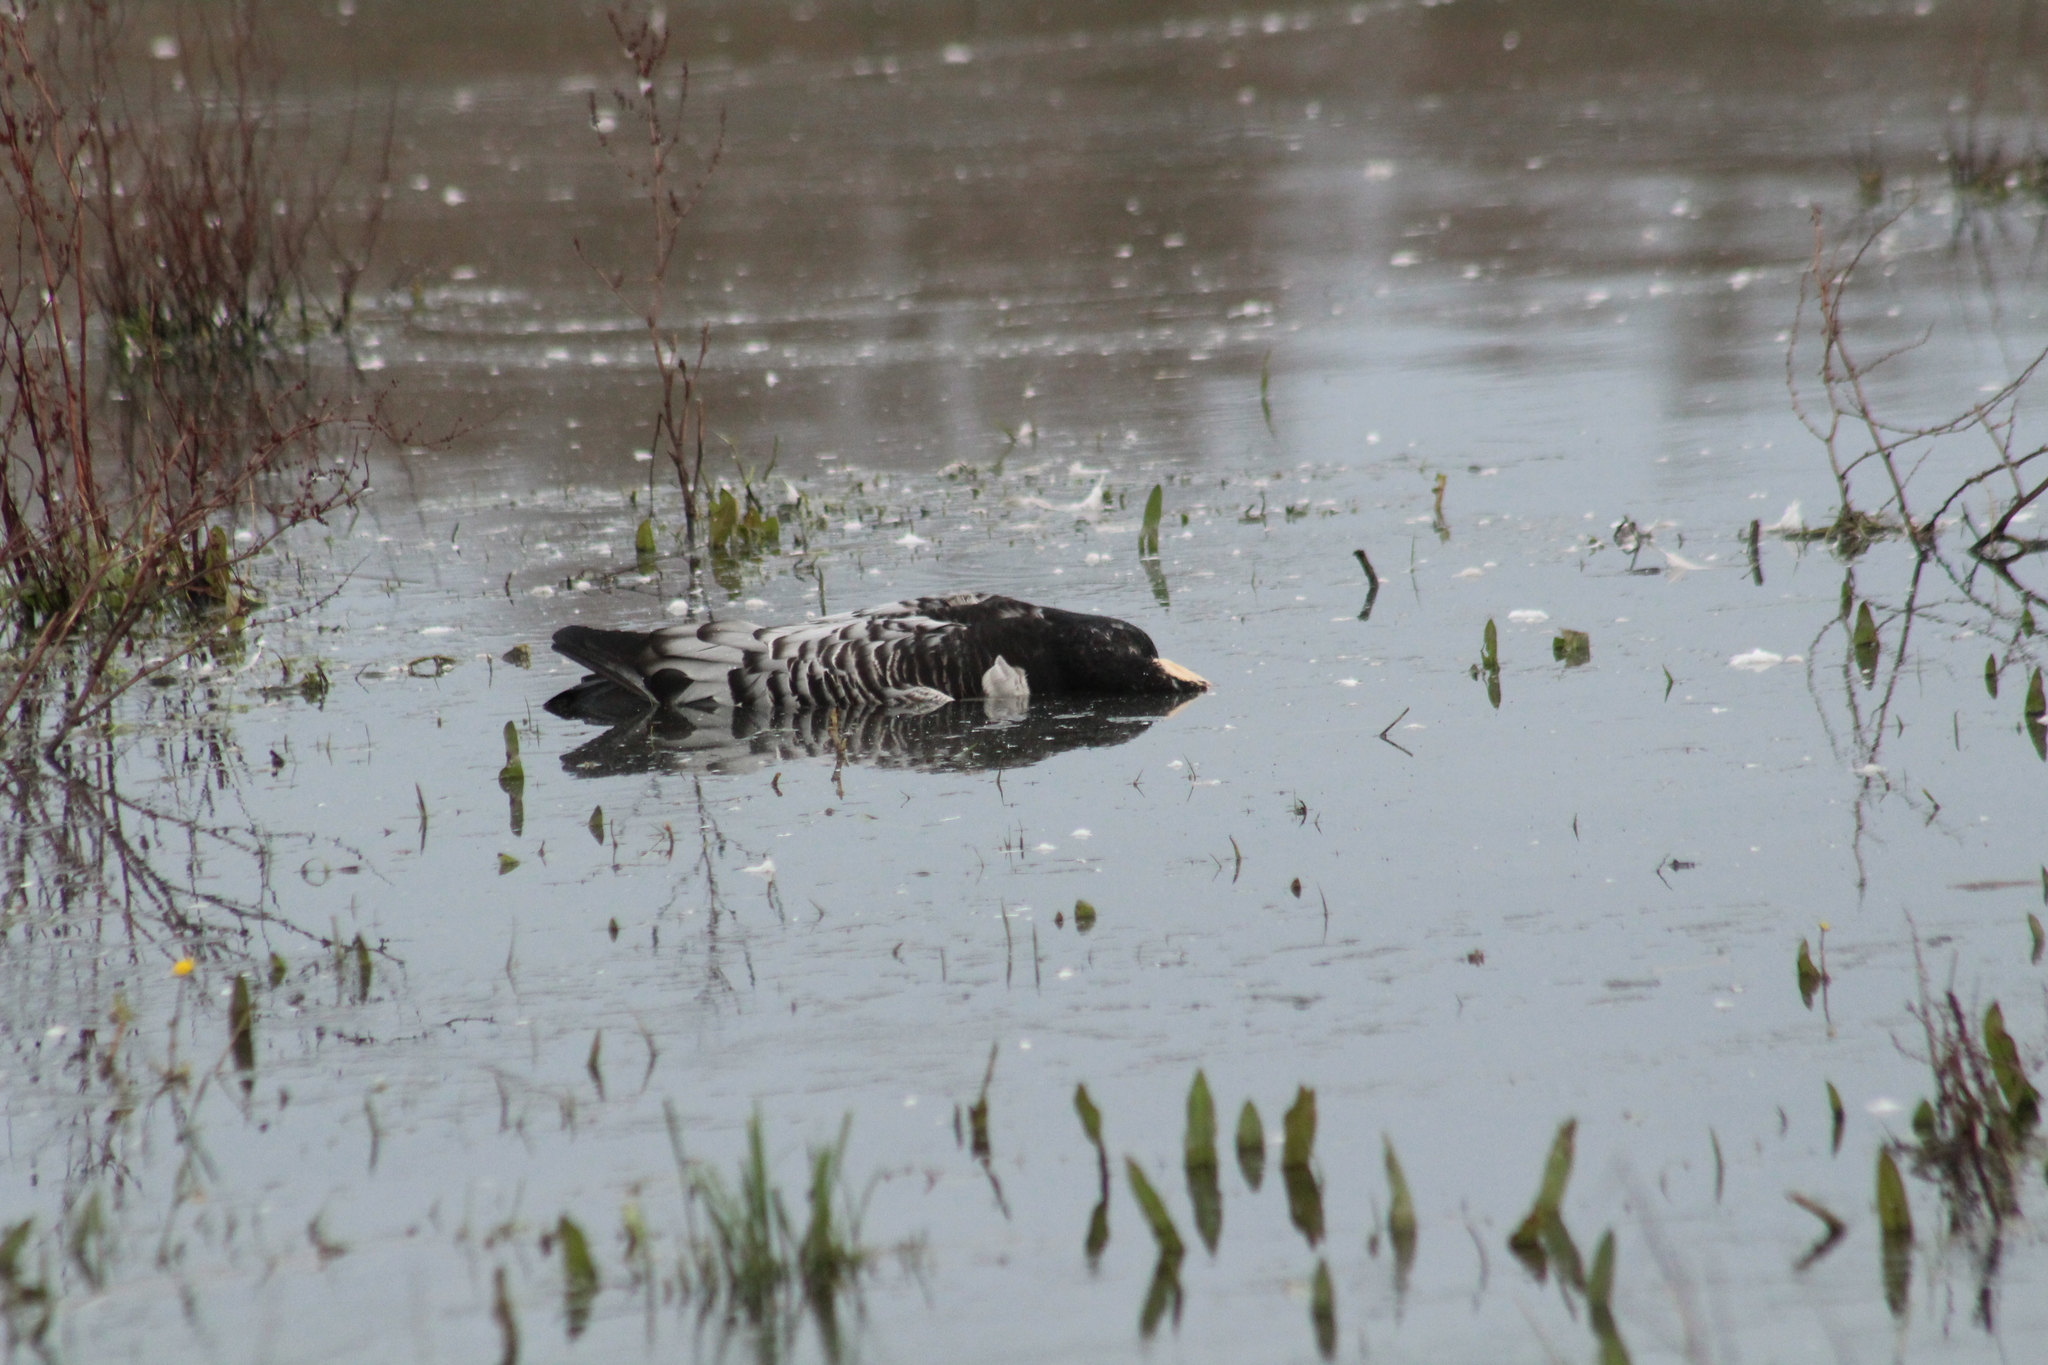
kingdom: Animalia
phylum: Chordata
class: Aves
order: Anseriformes
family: Anatidae
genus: Branta
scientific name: Branta leucopsis
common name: Barnacle goose
